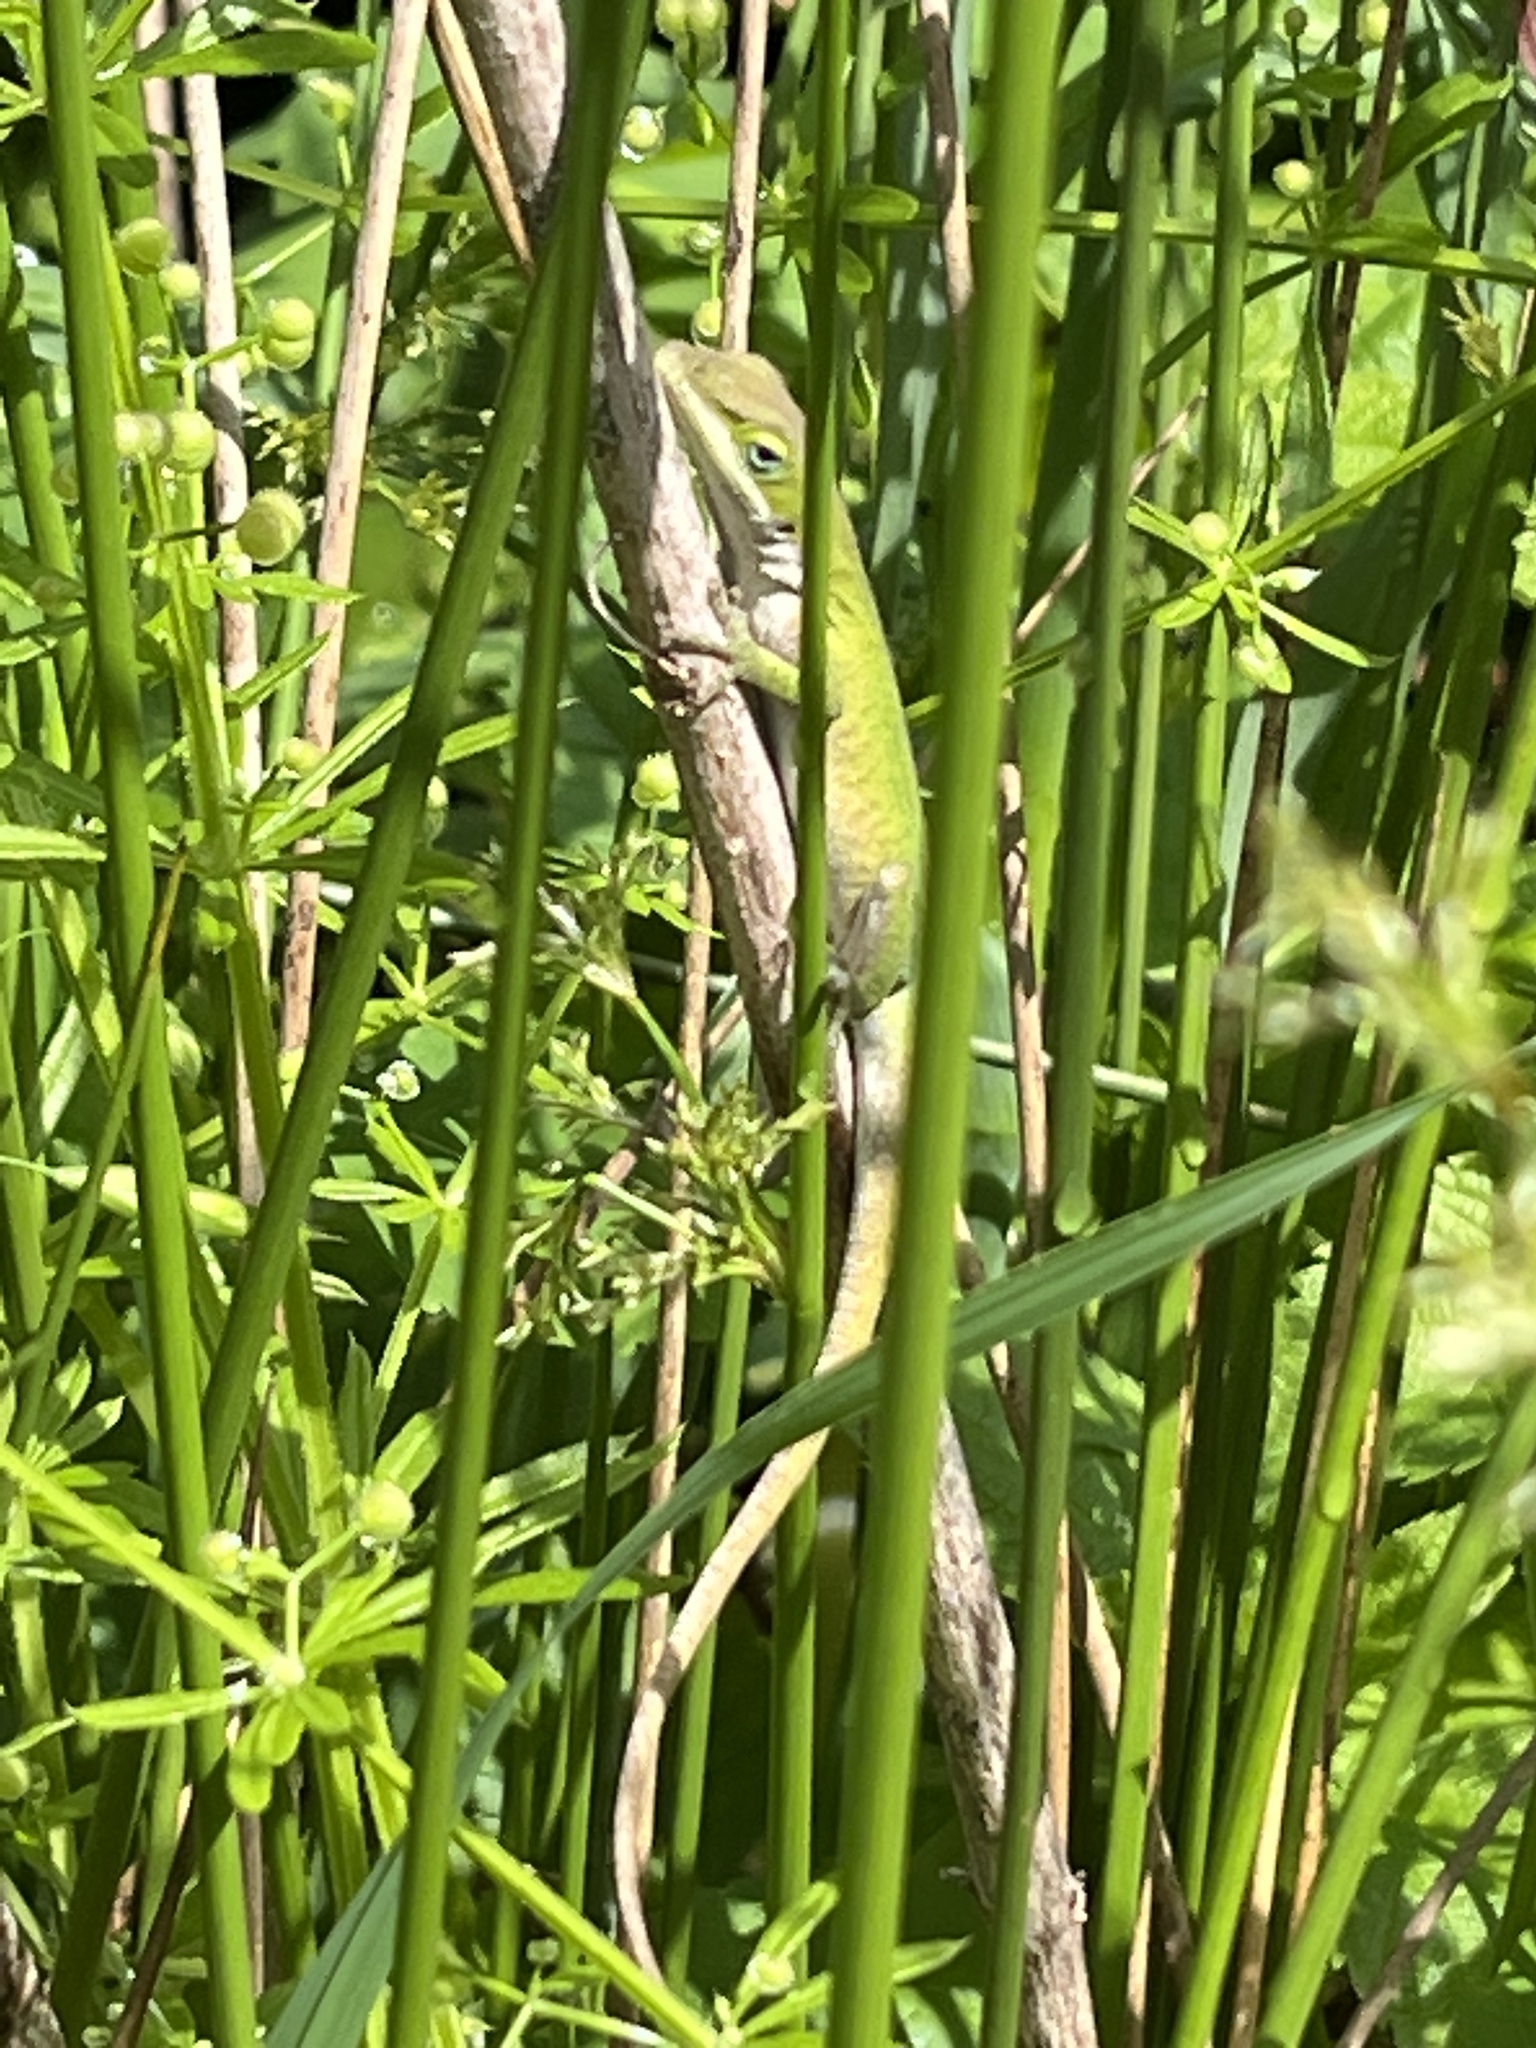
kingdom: Animalia
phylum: Chordata
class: Squamata
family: Dactyloidae
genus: Anolis
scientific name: Anolis carolinensis
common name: Green anole
